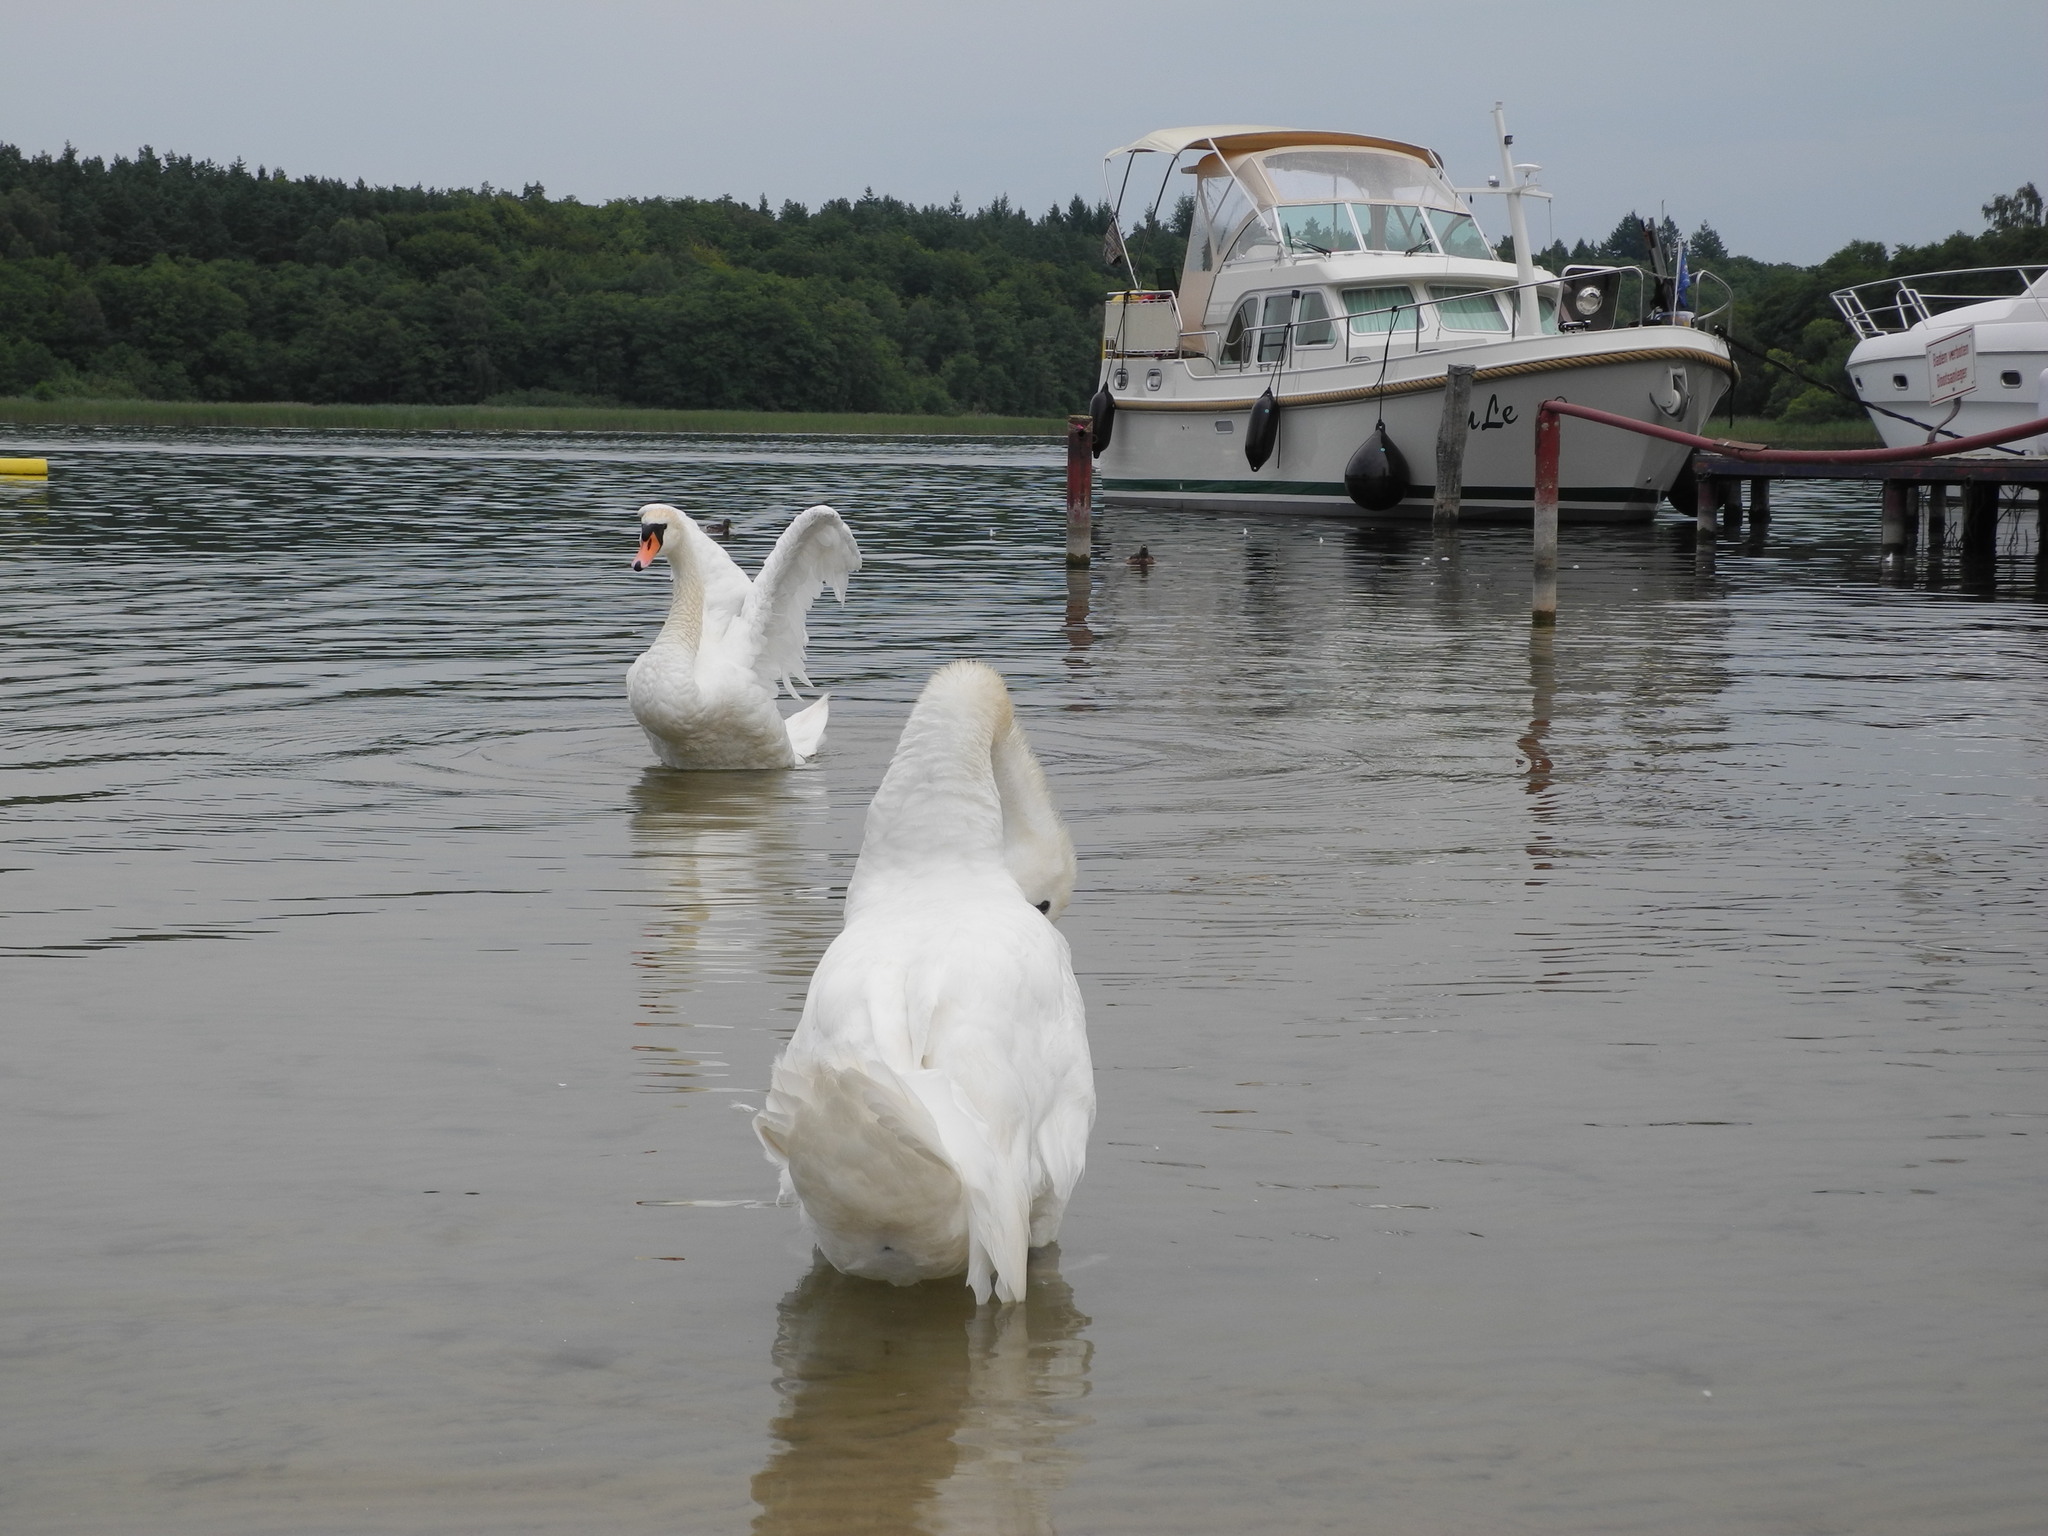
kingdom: Animalia
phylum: Chordata
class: Aves
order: Anseriformes
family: Anatidae
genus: Cygnus
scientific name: Cygnus olor
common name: Mute swan
